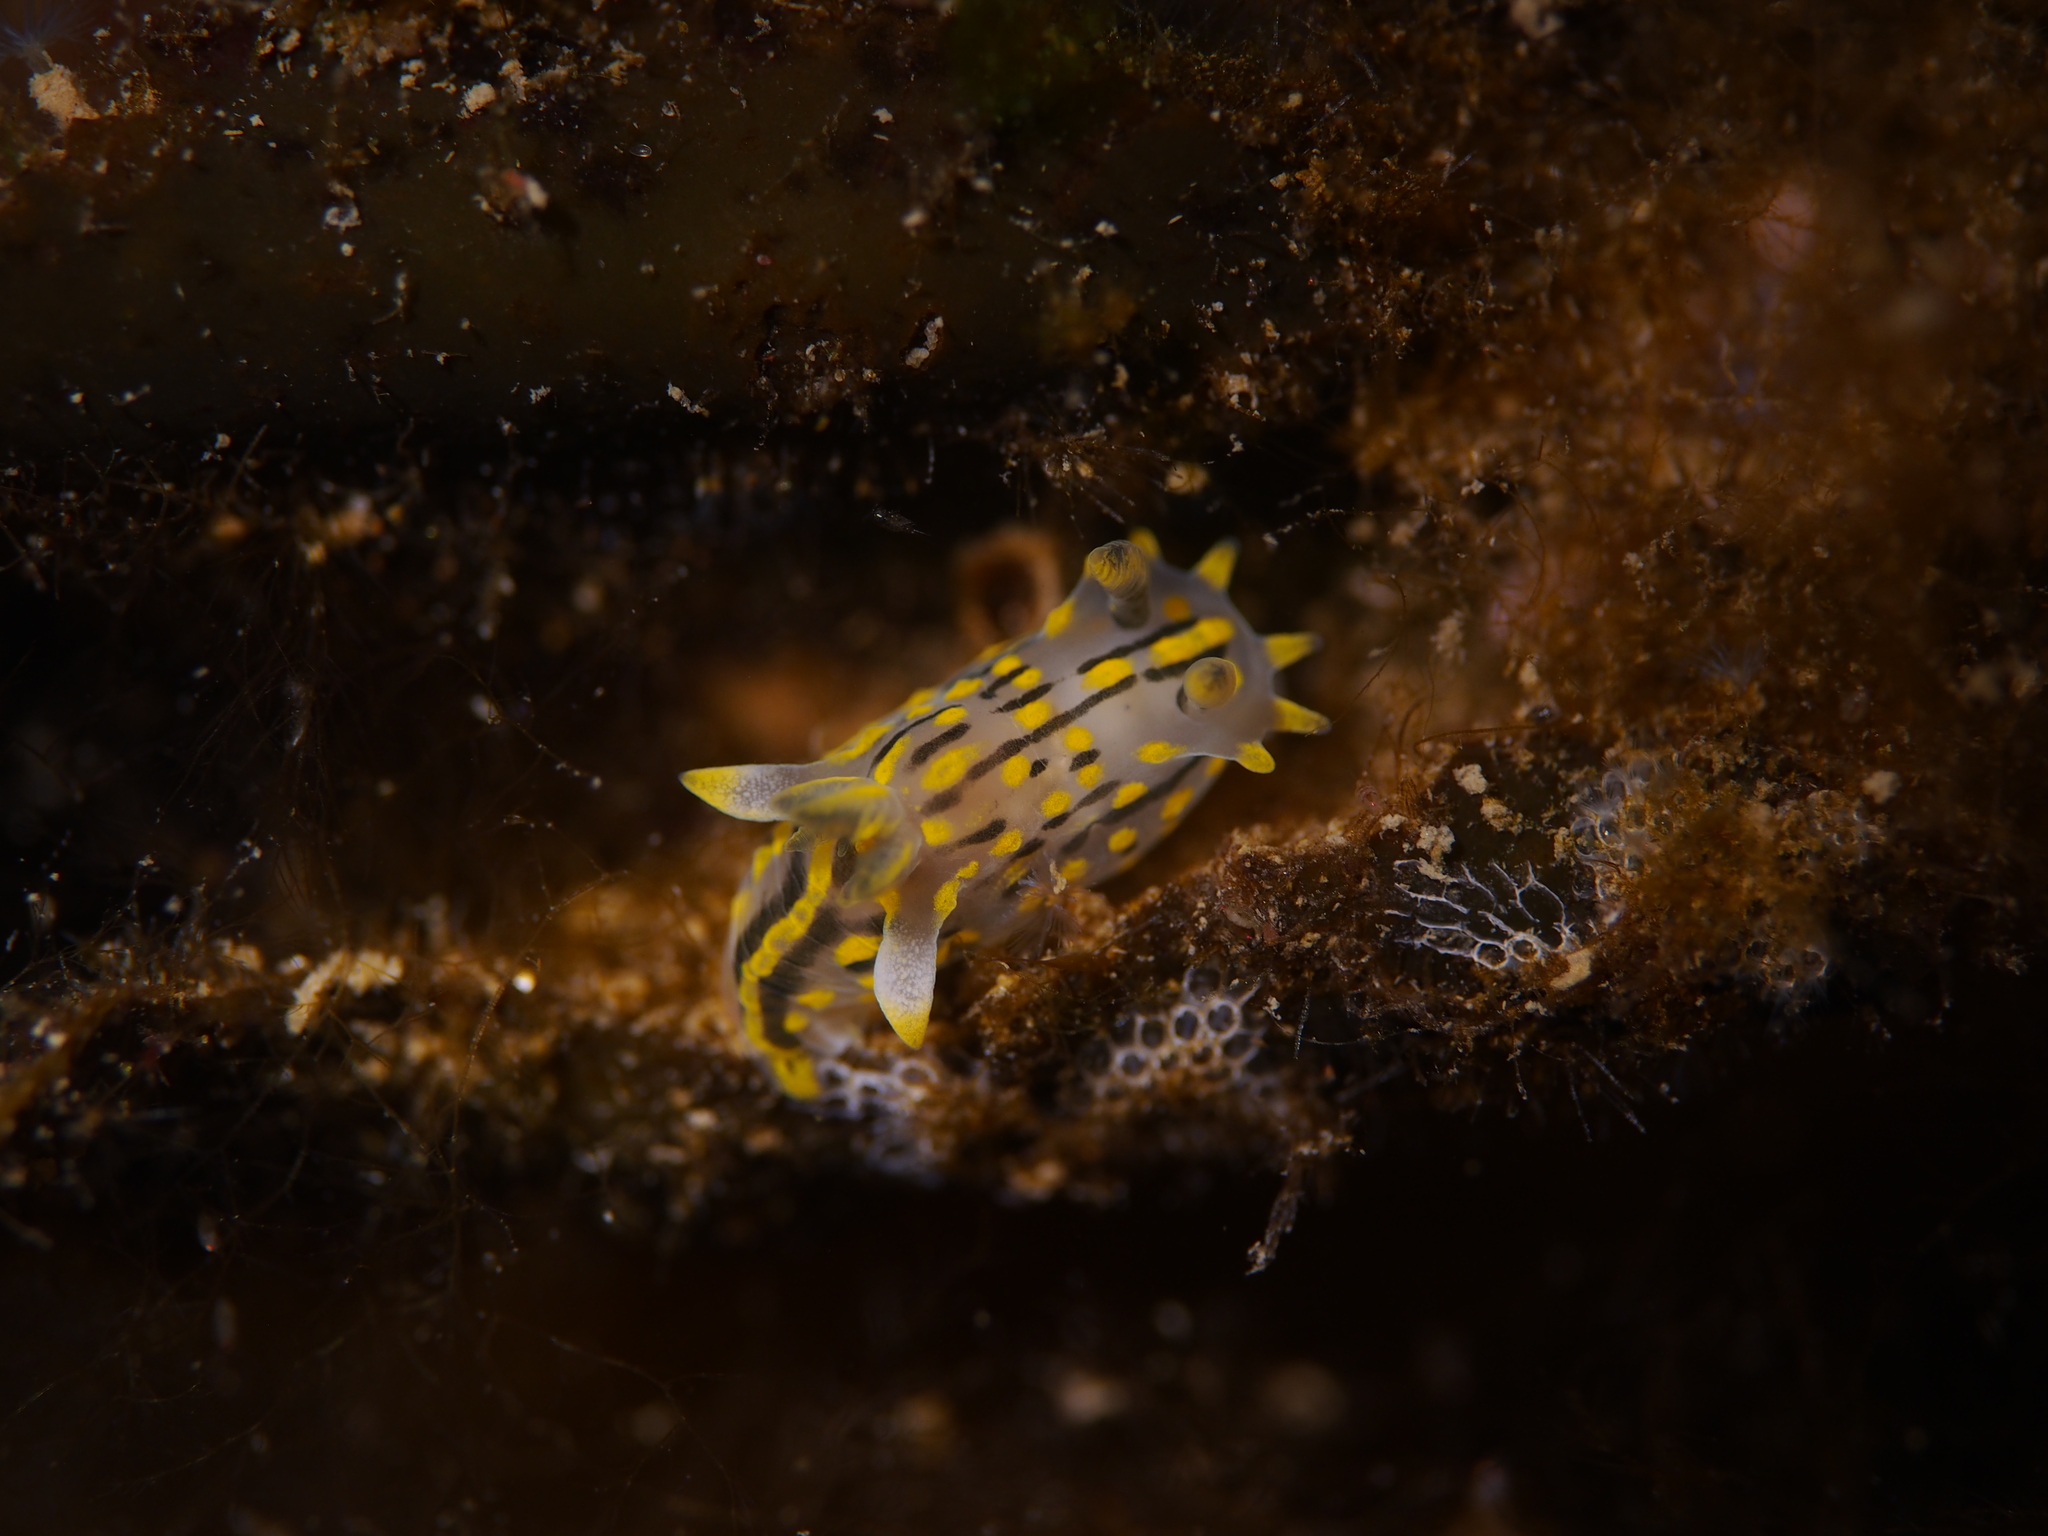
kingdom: Animalia
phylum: Mollusca
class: Gastropoda
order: Nudibranchia
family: Polyceridae
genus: Polycera
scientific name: Polycera quadrilineata
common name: Four-striped polycera
